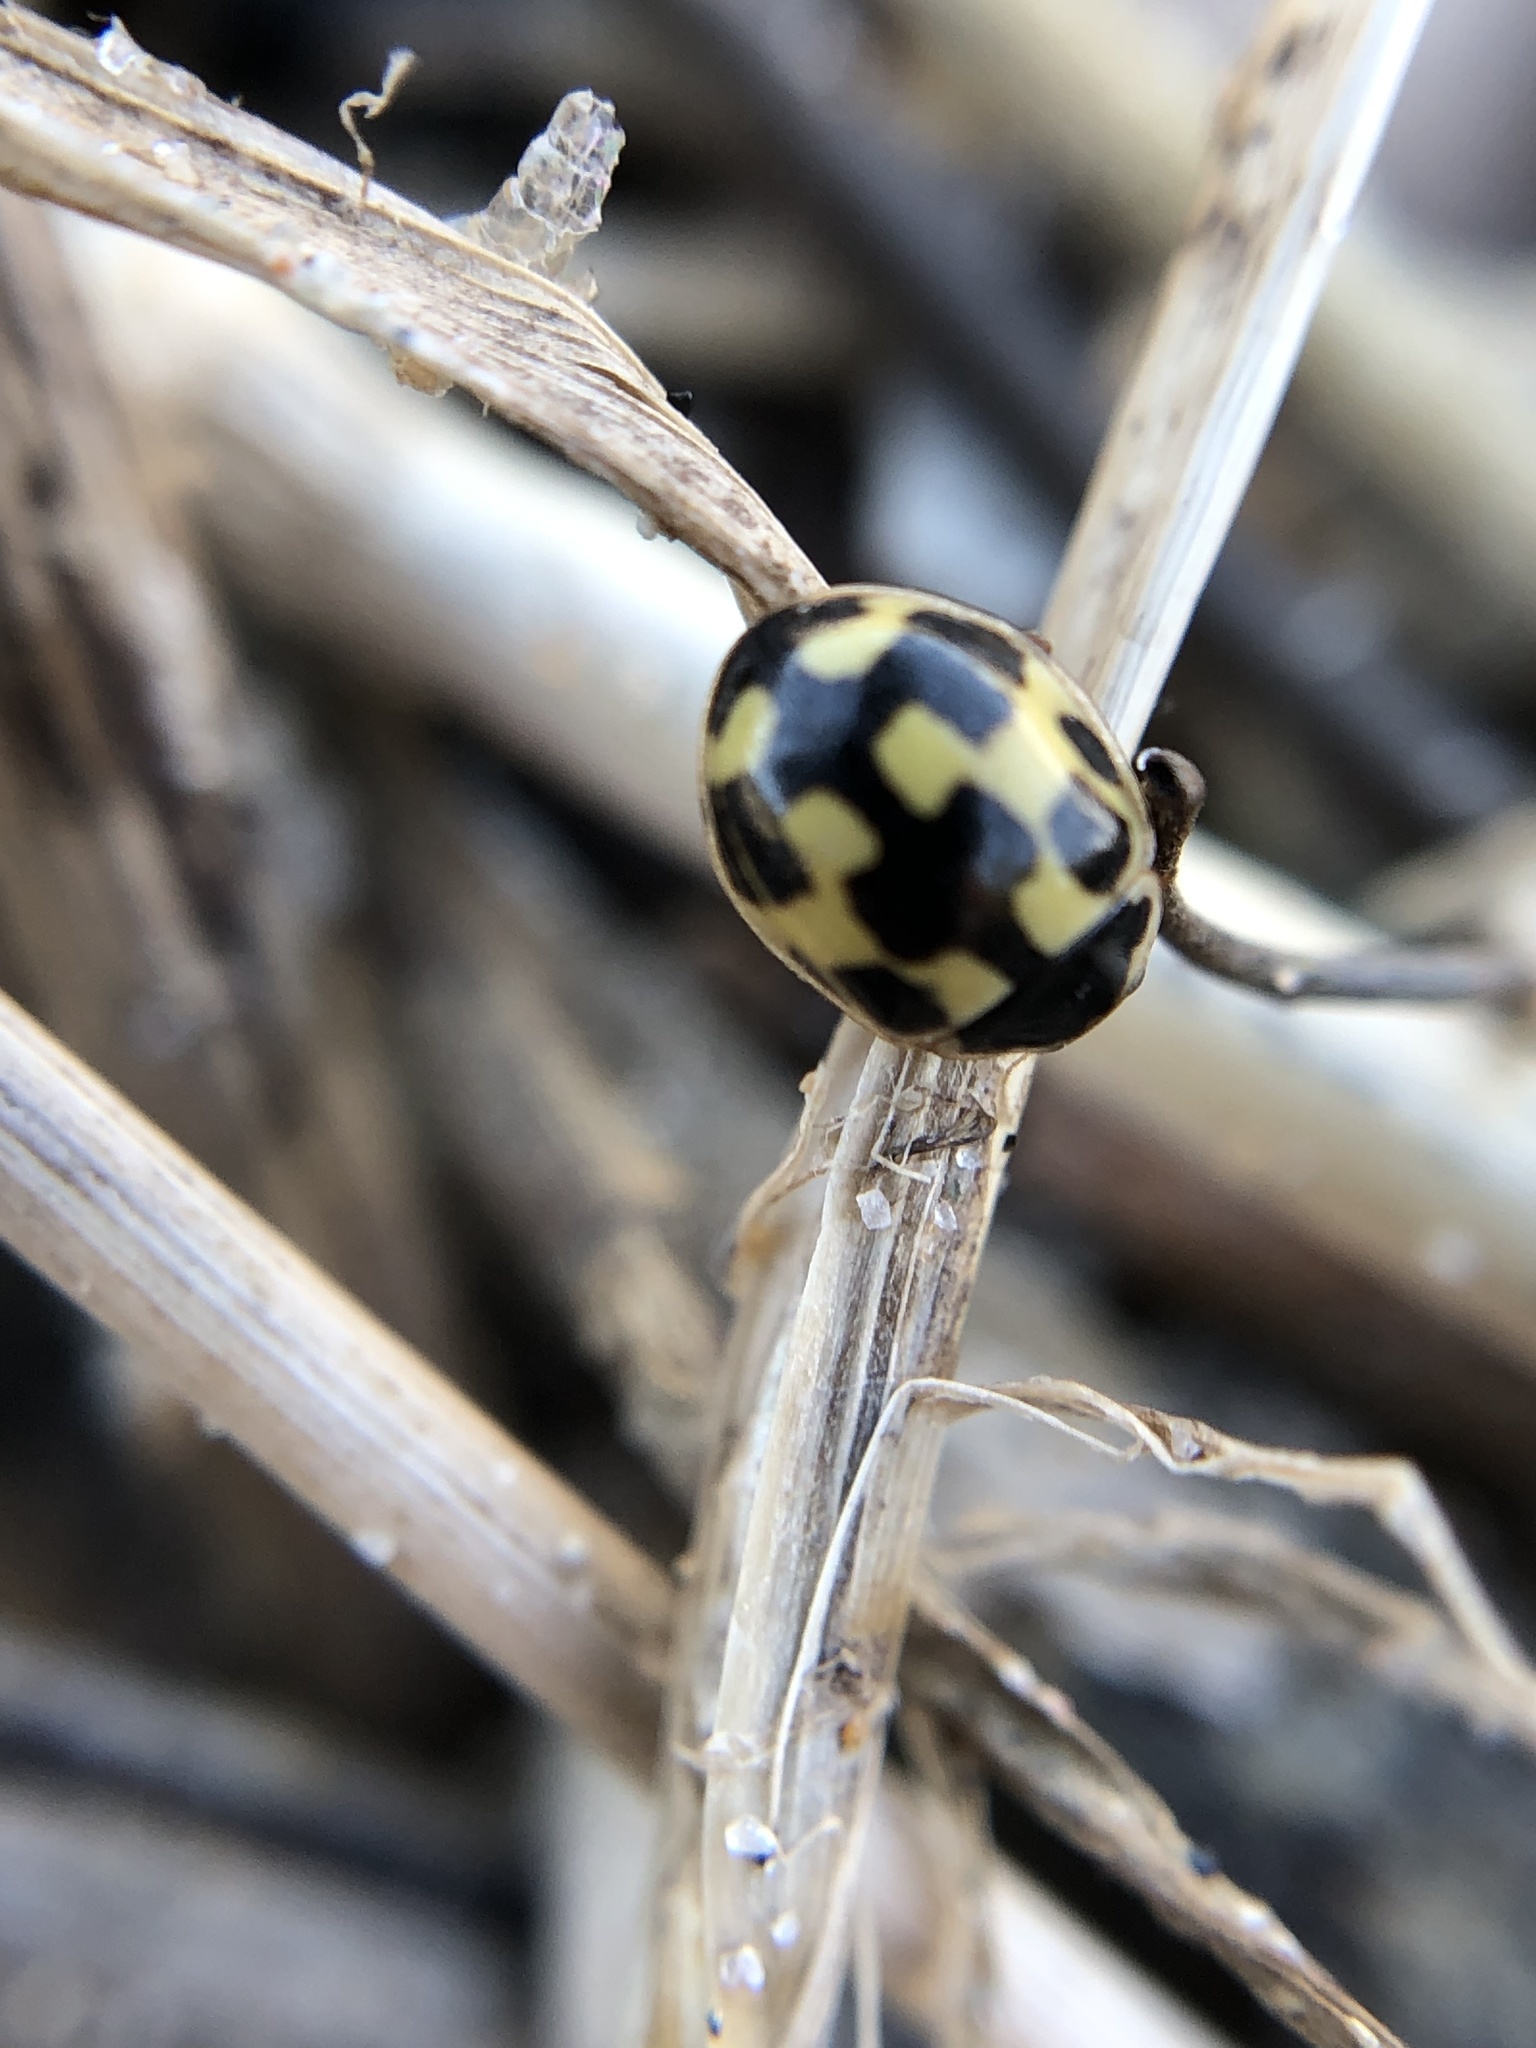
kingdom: Animalia
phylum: Arthropoda
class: Insecta
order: Coleoptera
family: Coccinellidae
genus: Propylaea
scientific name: Propylaea quatuordecimpunctata
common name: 14-spotted ladybird beetle
